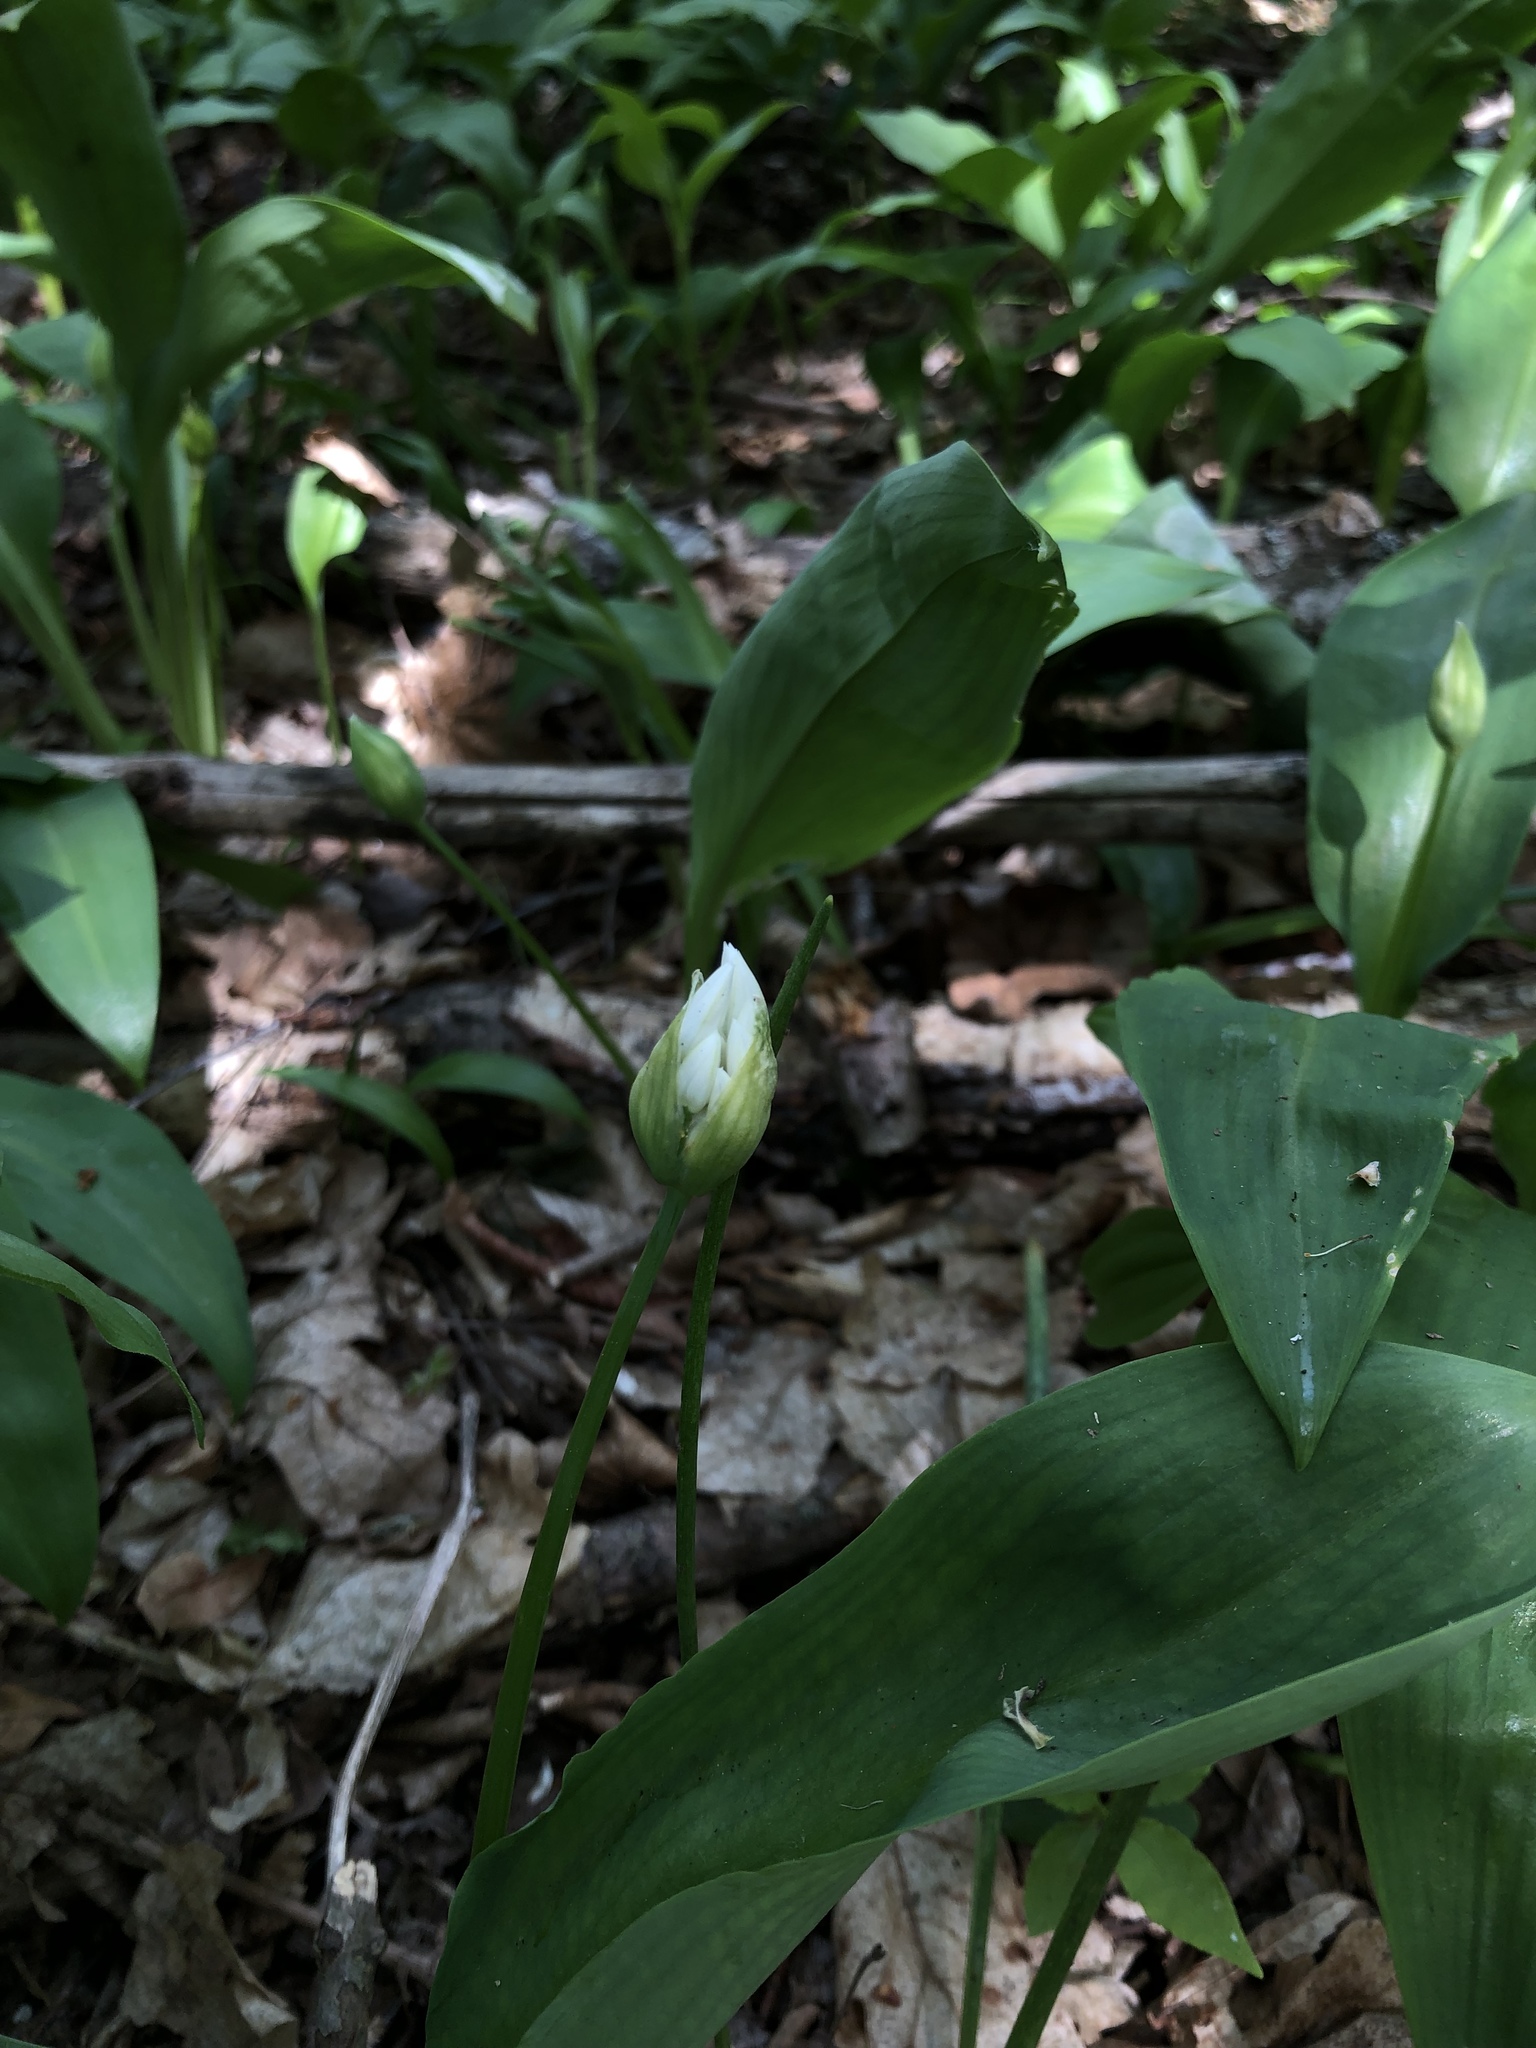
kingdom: Plantae
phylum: Tracheophyta
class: Liliopsida
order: Asparagales
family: Amaryllidaceae
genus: Allium
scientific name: Allium ursinum
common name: Ramsons
